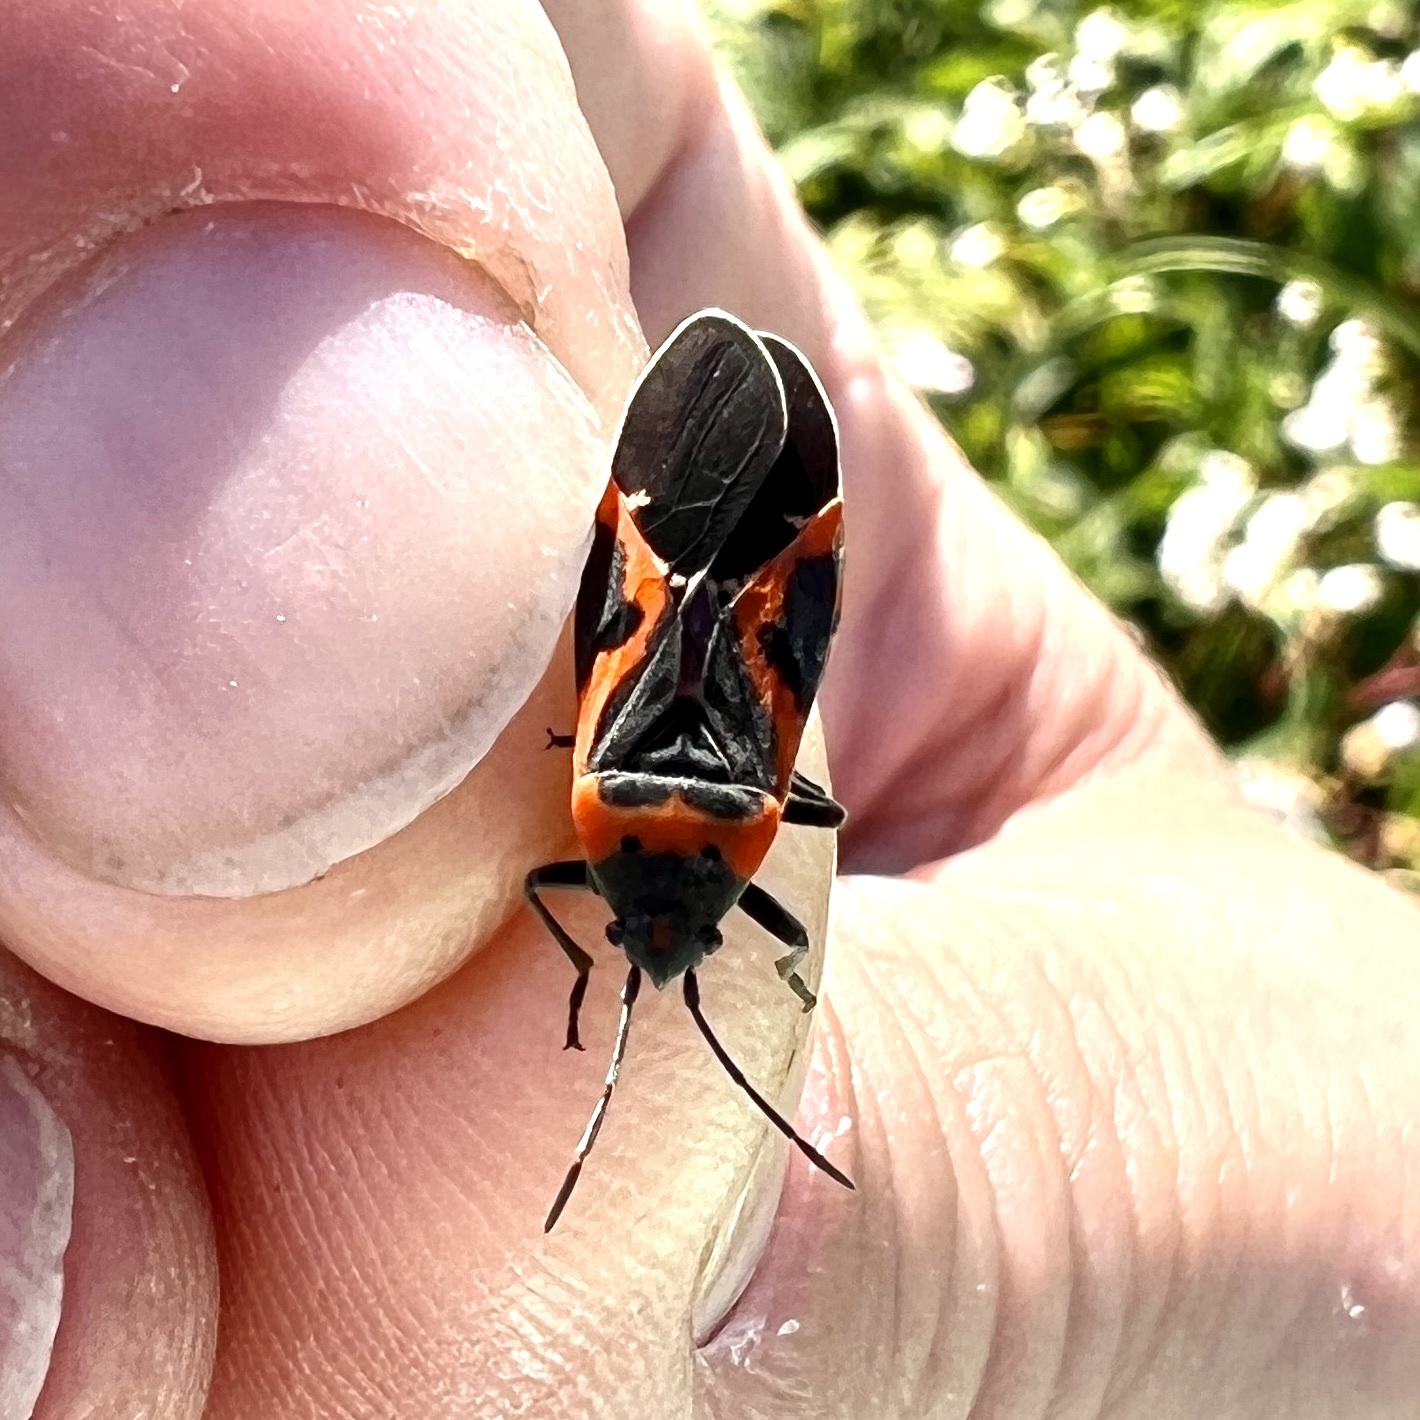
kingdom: Animalia
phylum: Arthropoda
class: Insecta
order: Hemiptera
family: Lygaeidae
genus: Lygaeus
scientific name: Lygaeus kalmii
